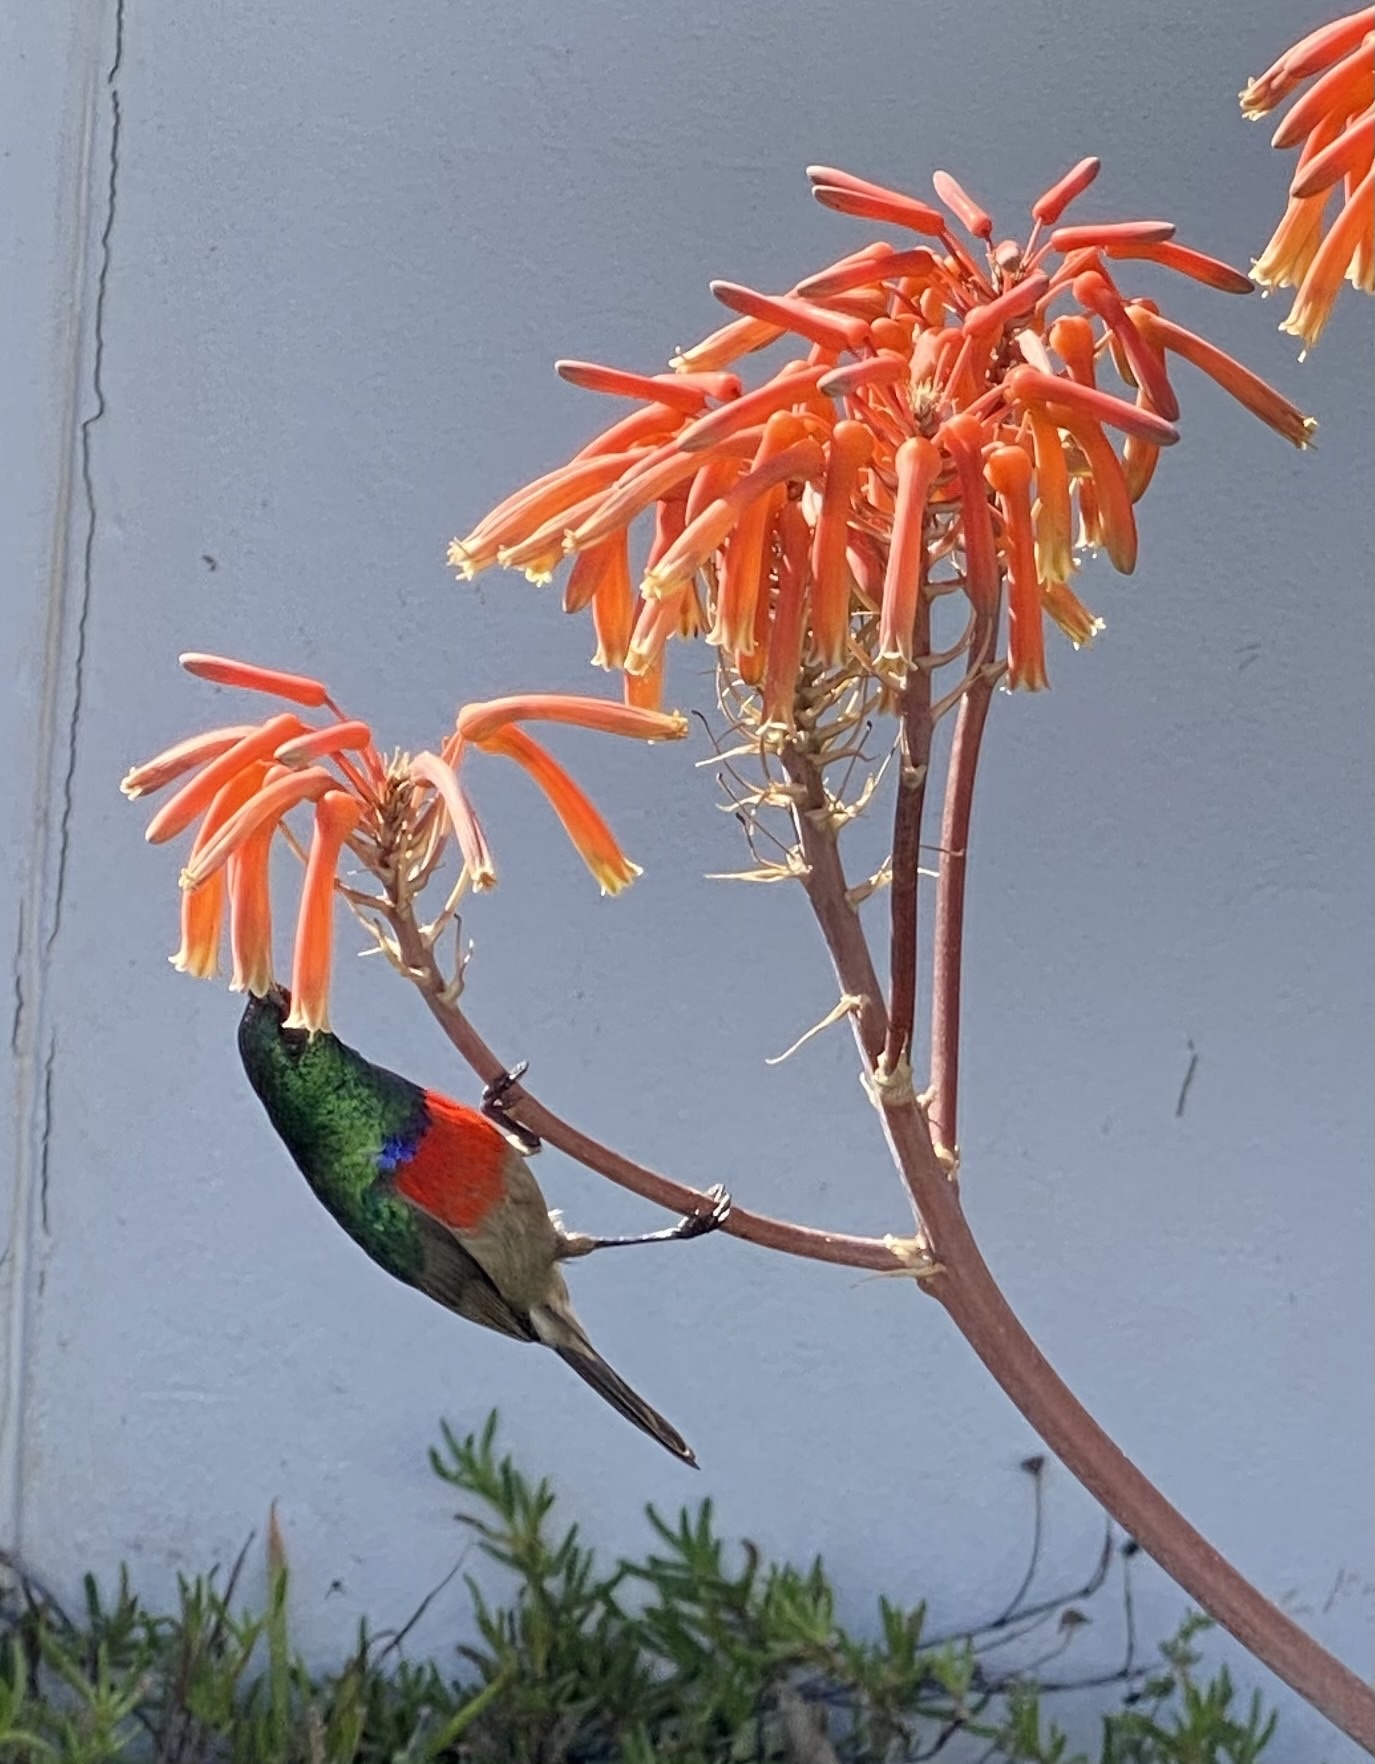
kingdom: Animalia
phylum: Chordata
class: Aves
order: Passeriformes
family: Nectariniidae
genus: Cinnyris
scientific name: Cinnyris afer
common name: Greater double-collared sunbird
